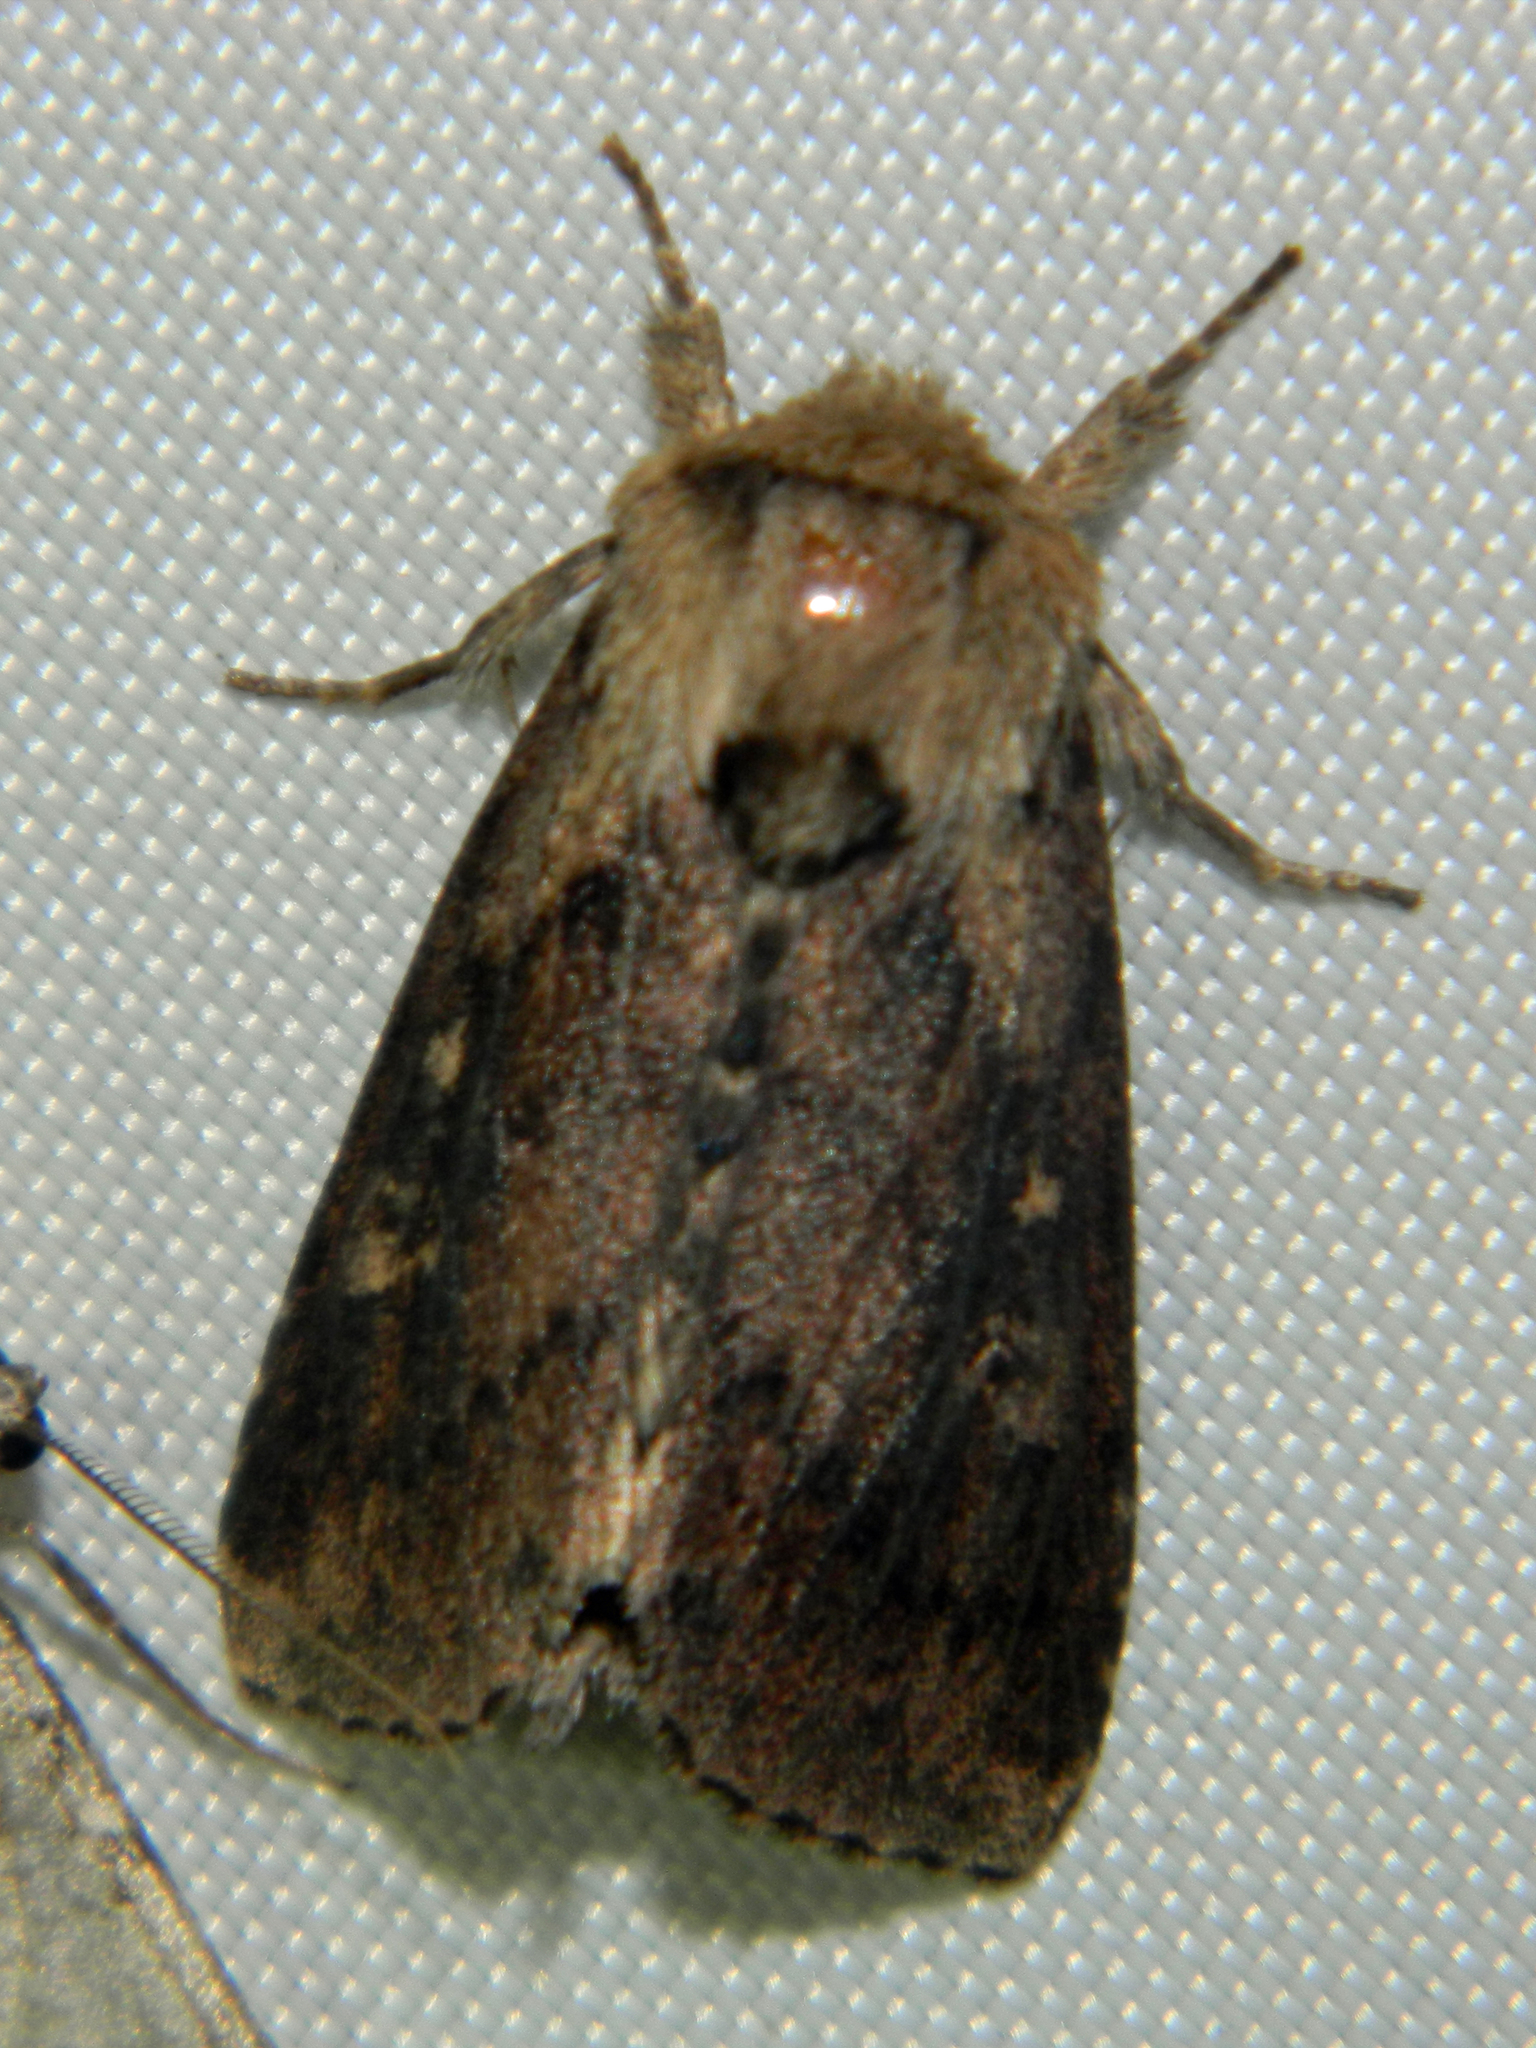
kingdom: Animalia
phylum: Arthropoda
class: Insecta
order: Lepidoptera
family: Noctuidae
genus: Bellura
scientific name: Bellura vulnifica
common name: Black-tailed diver moth
